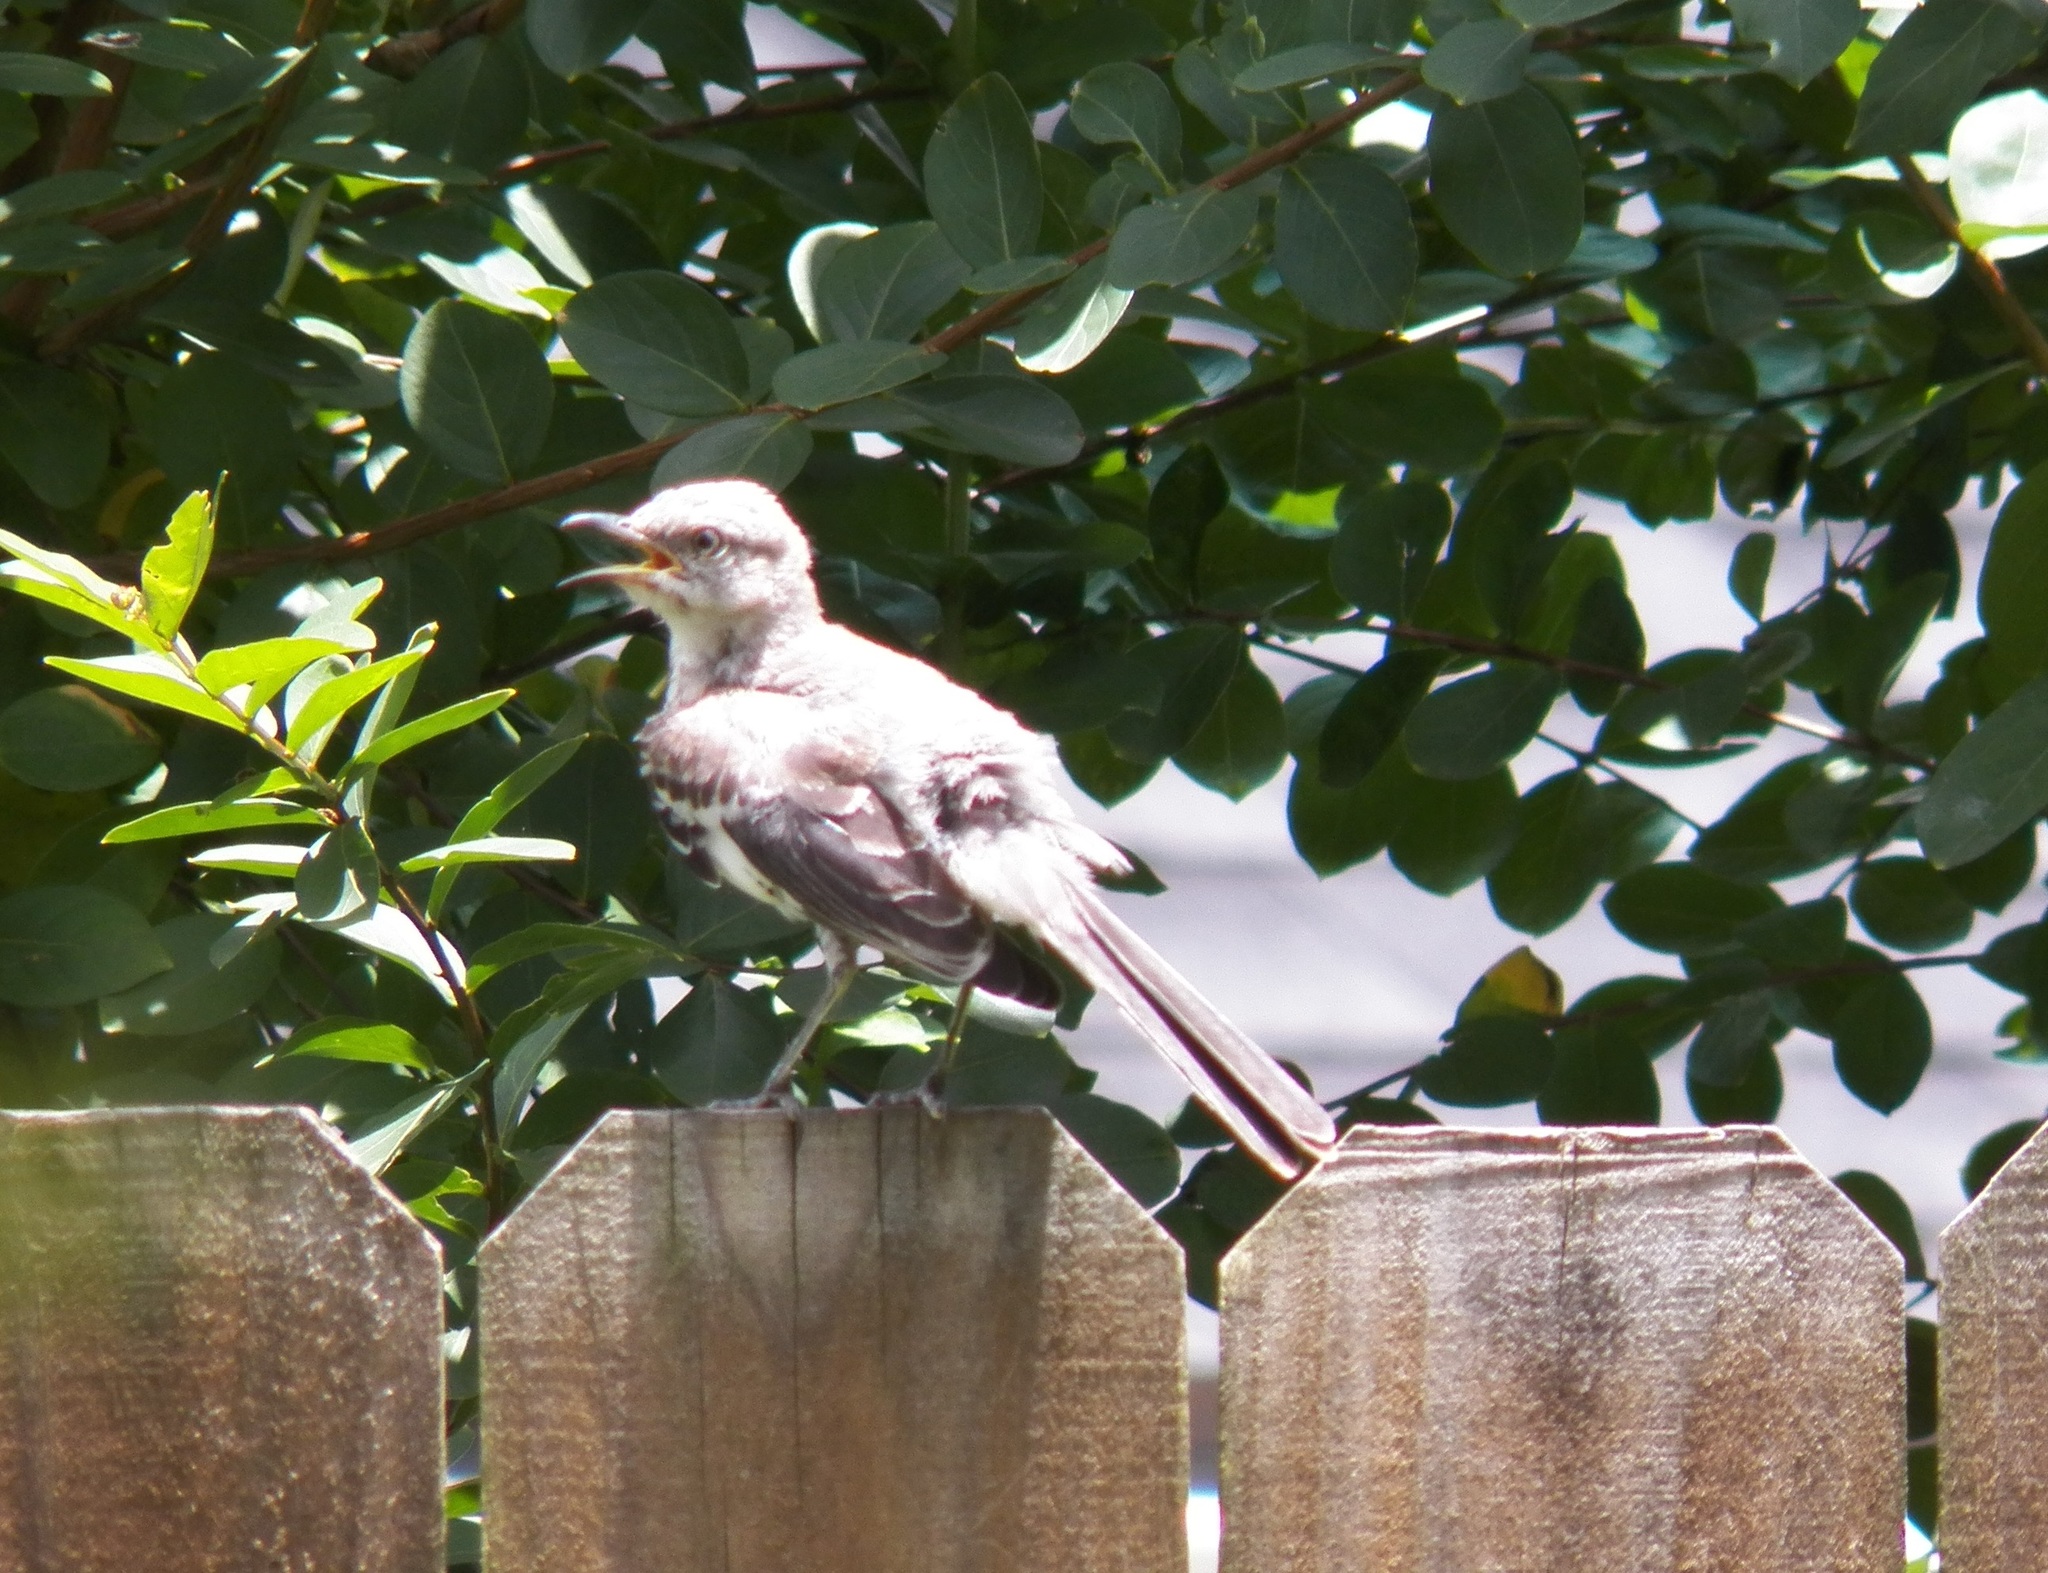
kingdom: Animalia
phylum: Chordata
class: Aves
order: Passeriformes
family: Mimidae
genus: Mimus
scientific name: Mimus polyglottos
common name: Northern mockingbird
